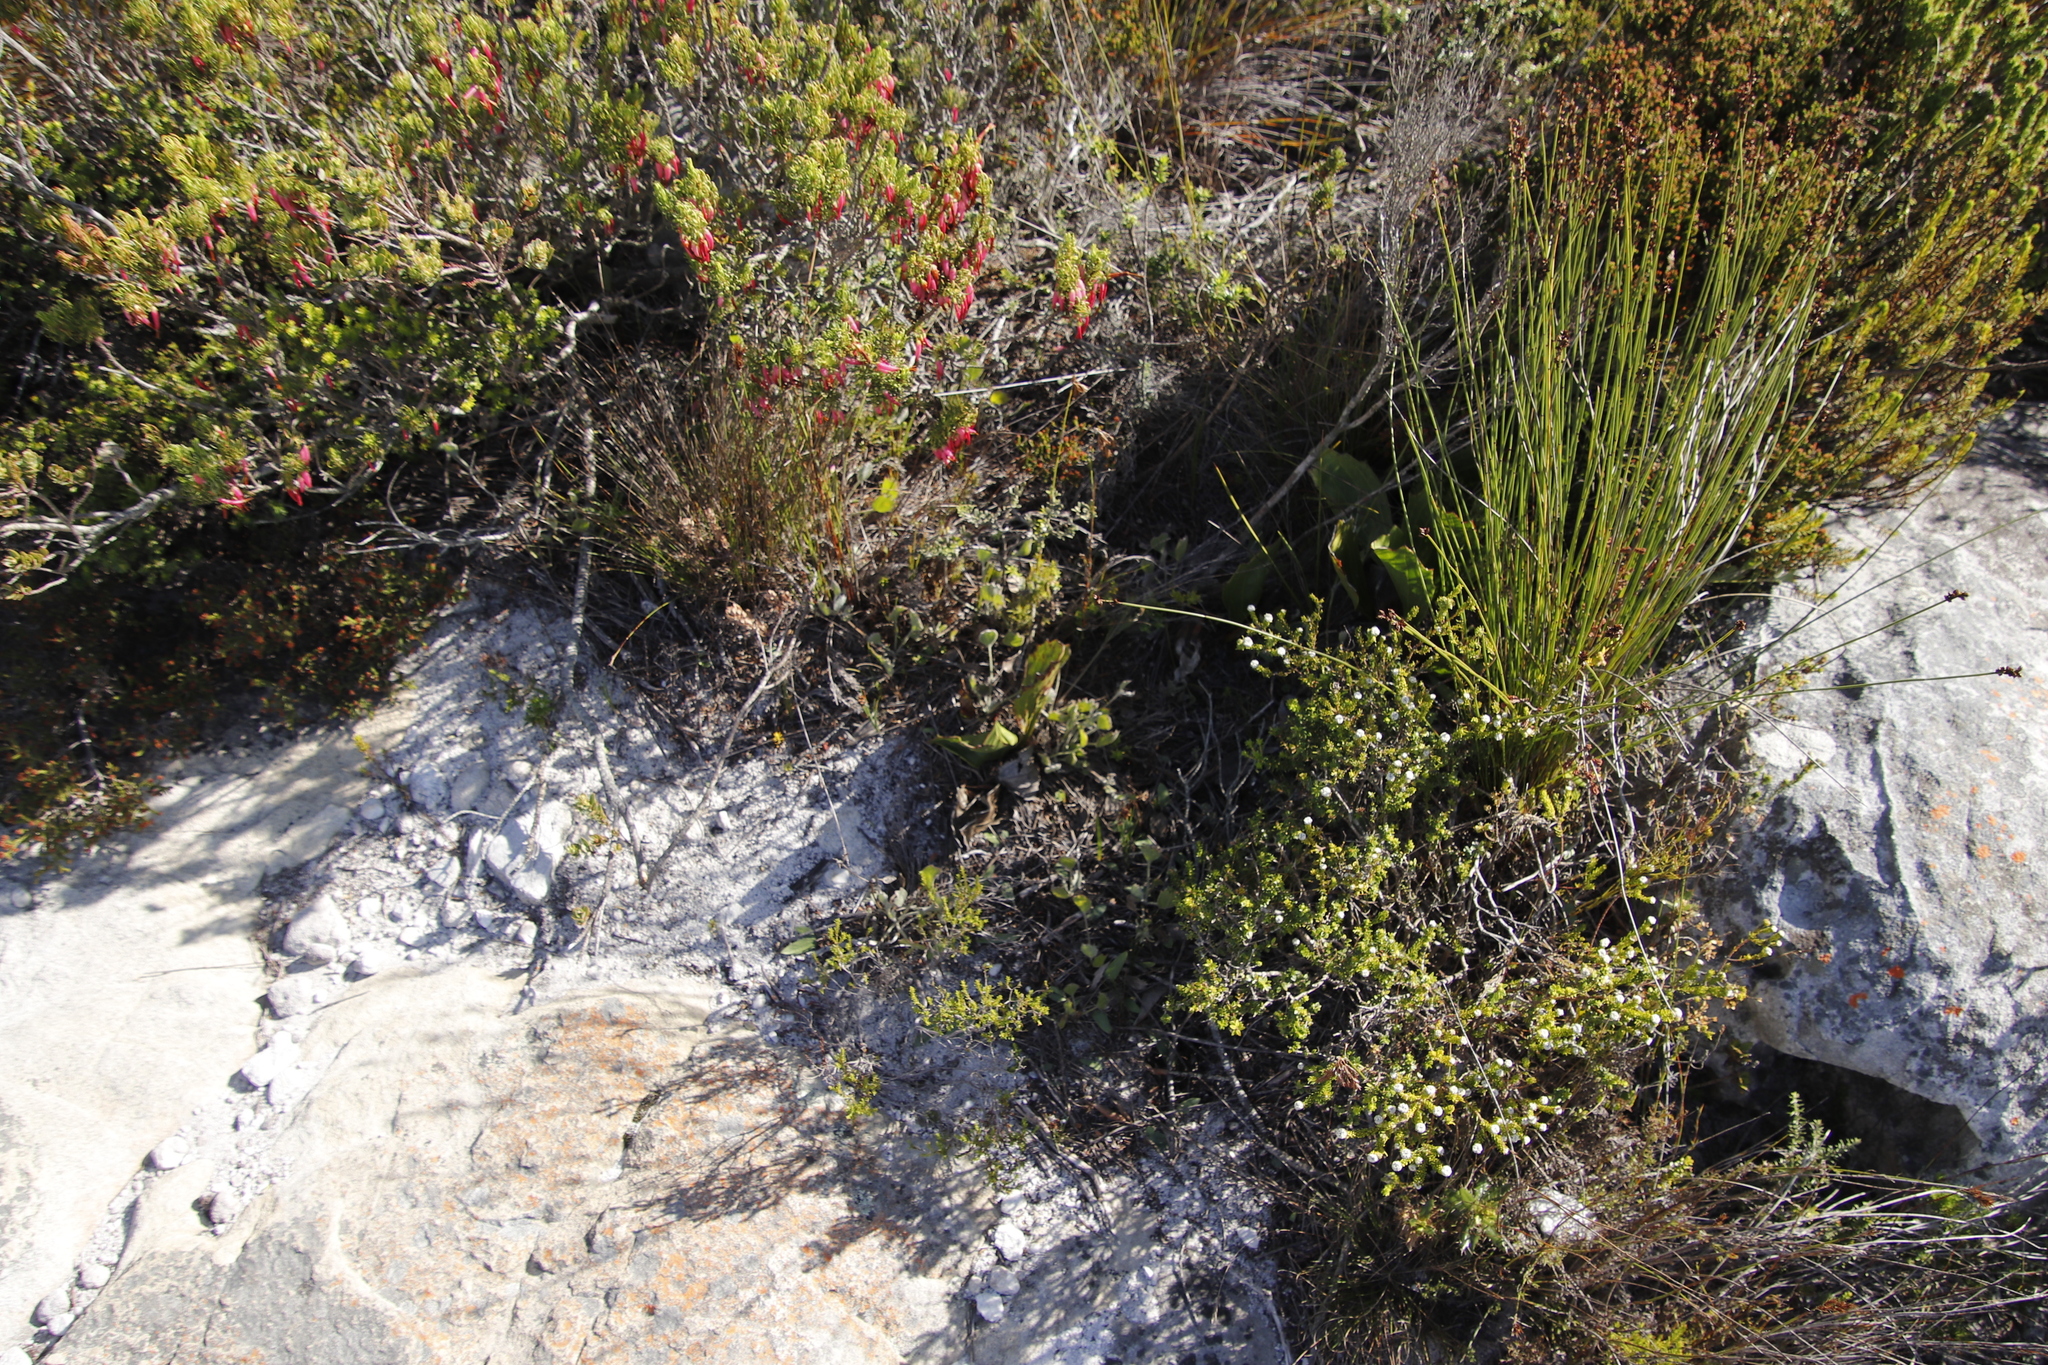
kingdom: Plantae
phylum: Tracheophyta
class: Magnoliopsida
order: Apiales
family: Apiaceae
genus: Centella
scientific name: Centella difformis
